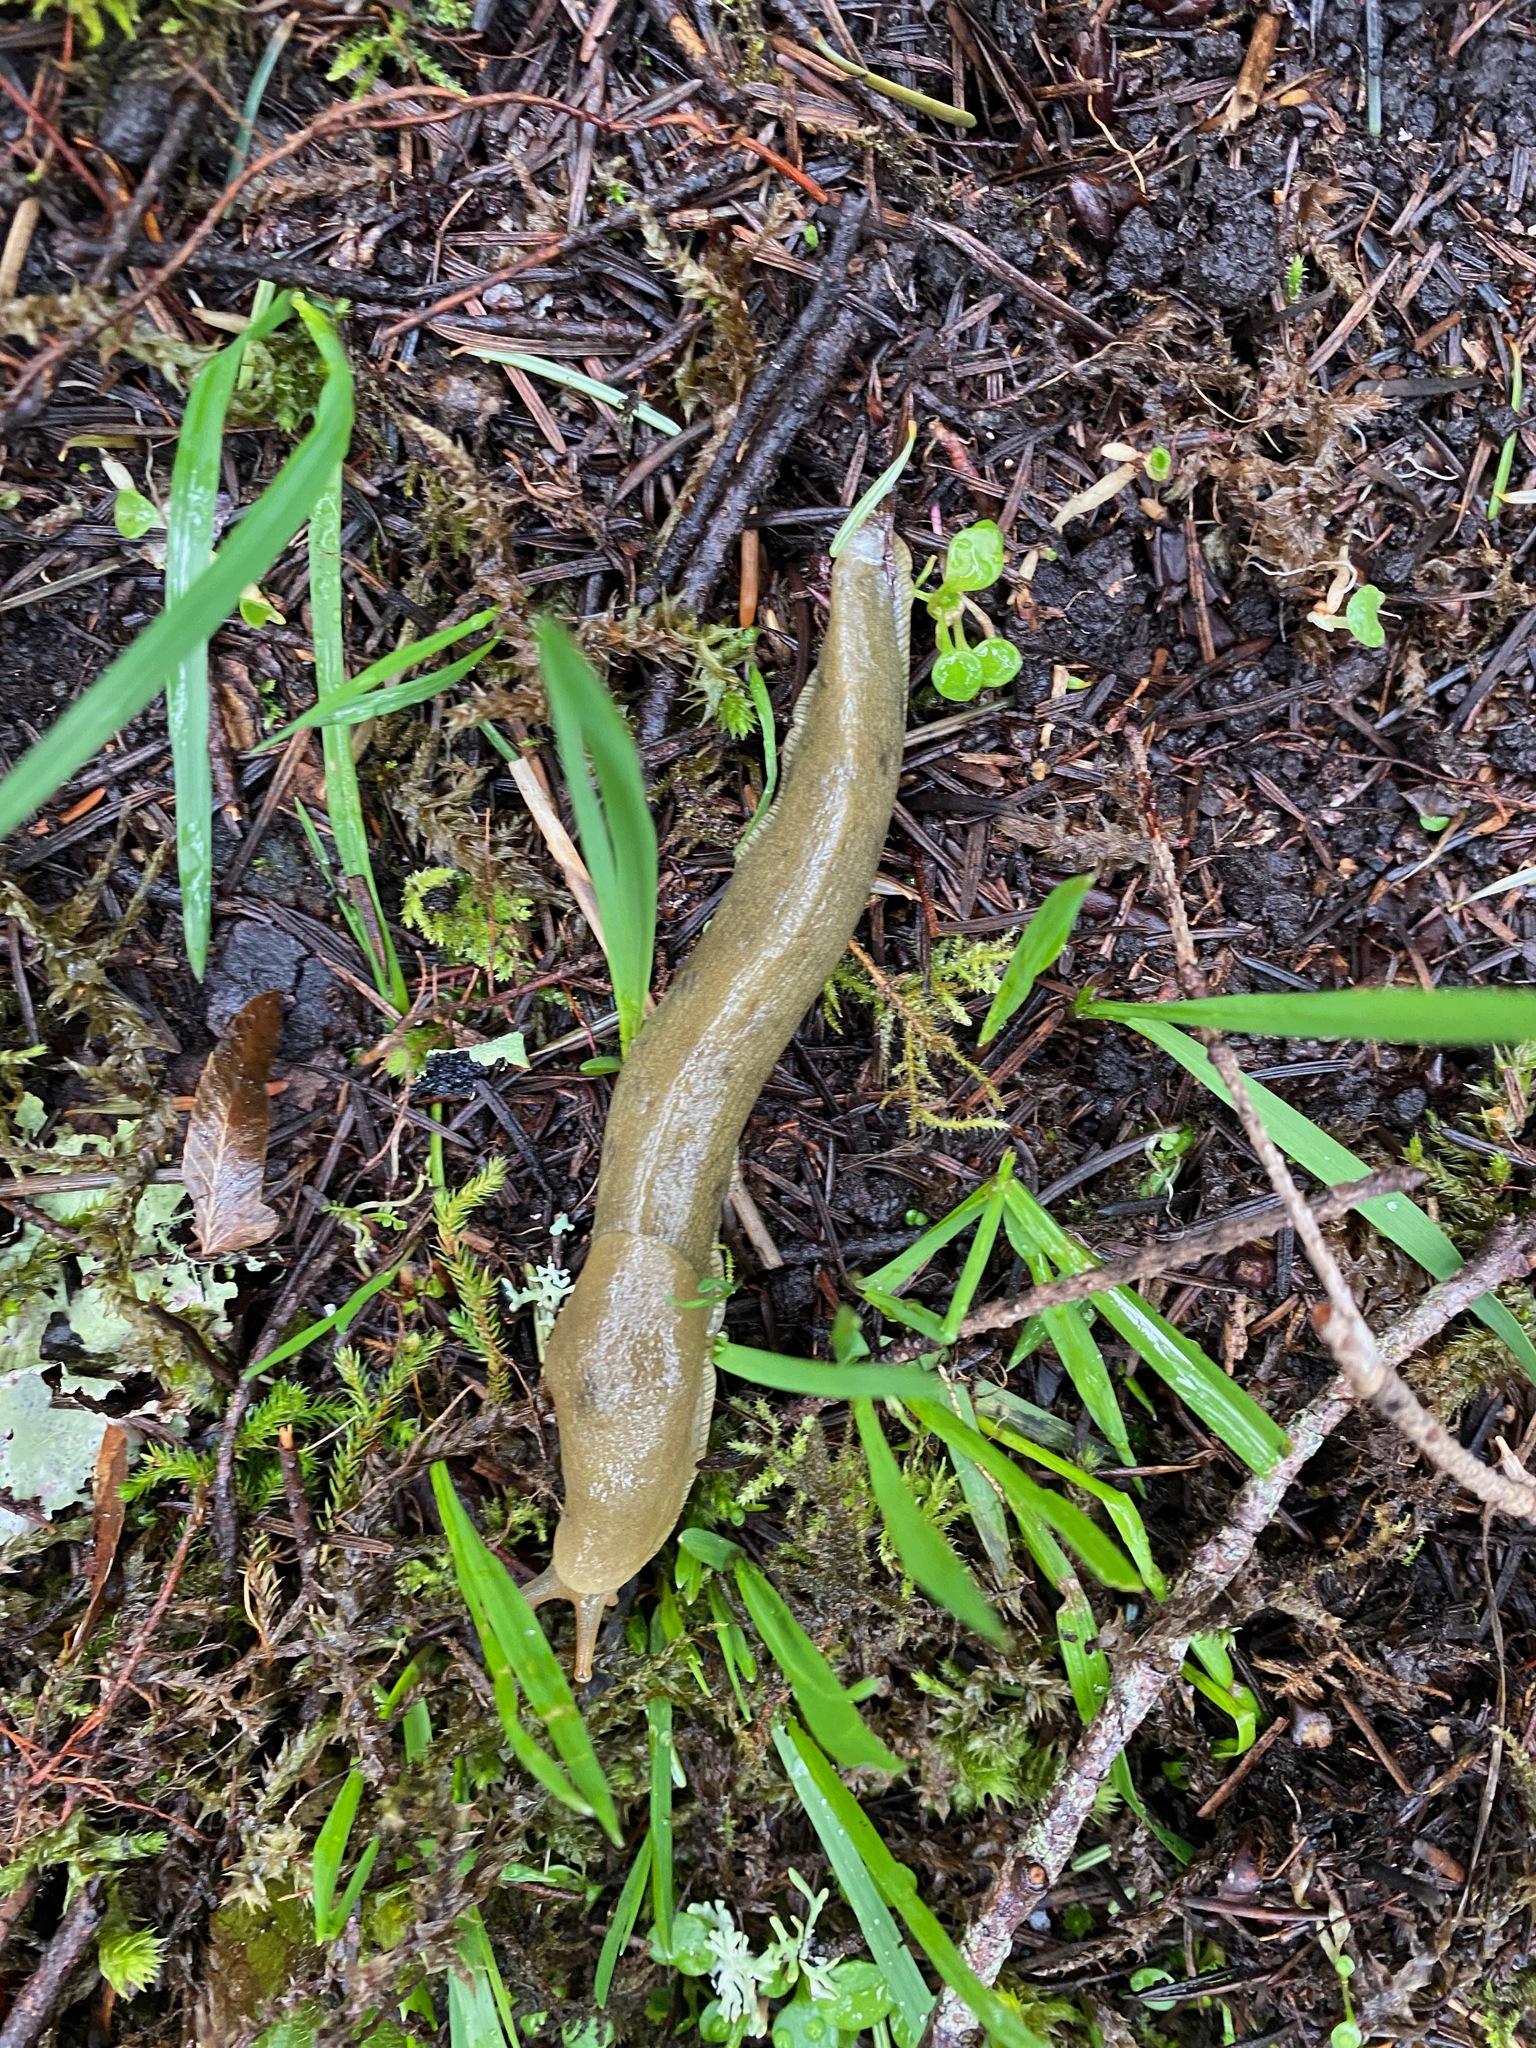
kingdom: Animalia
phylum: Mollusca
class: Gastropoda
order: Stylommatophora
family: Ariolimacidae
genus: Ariolimax
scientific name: Ariolimax columbianus
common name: Pacific banana slug
